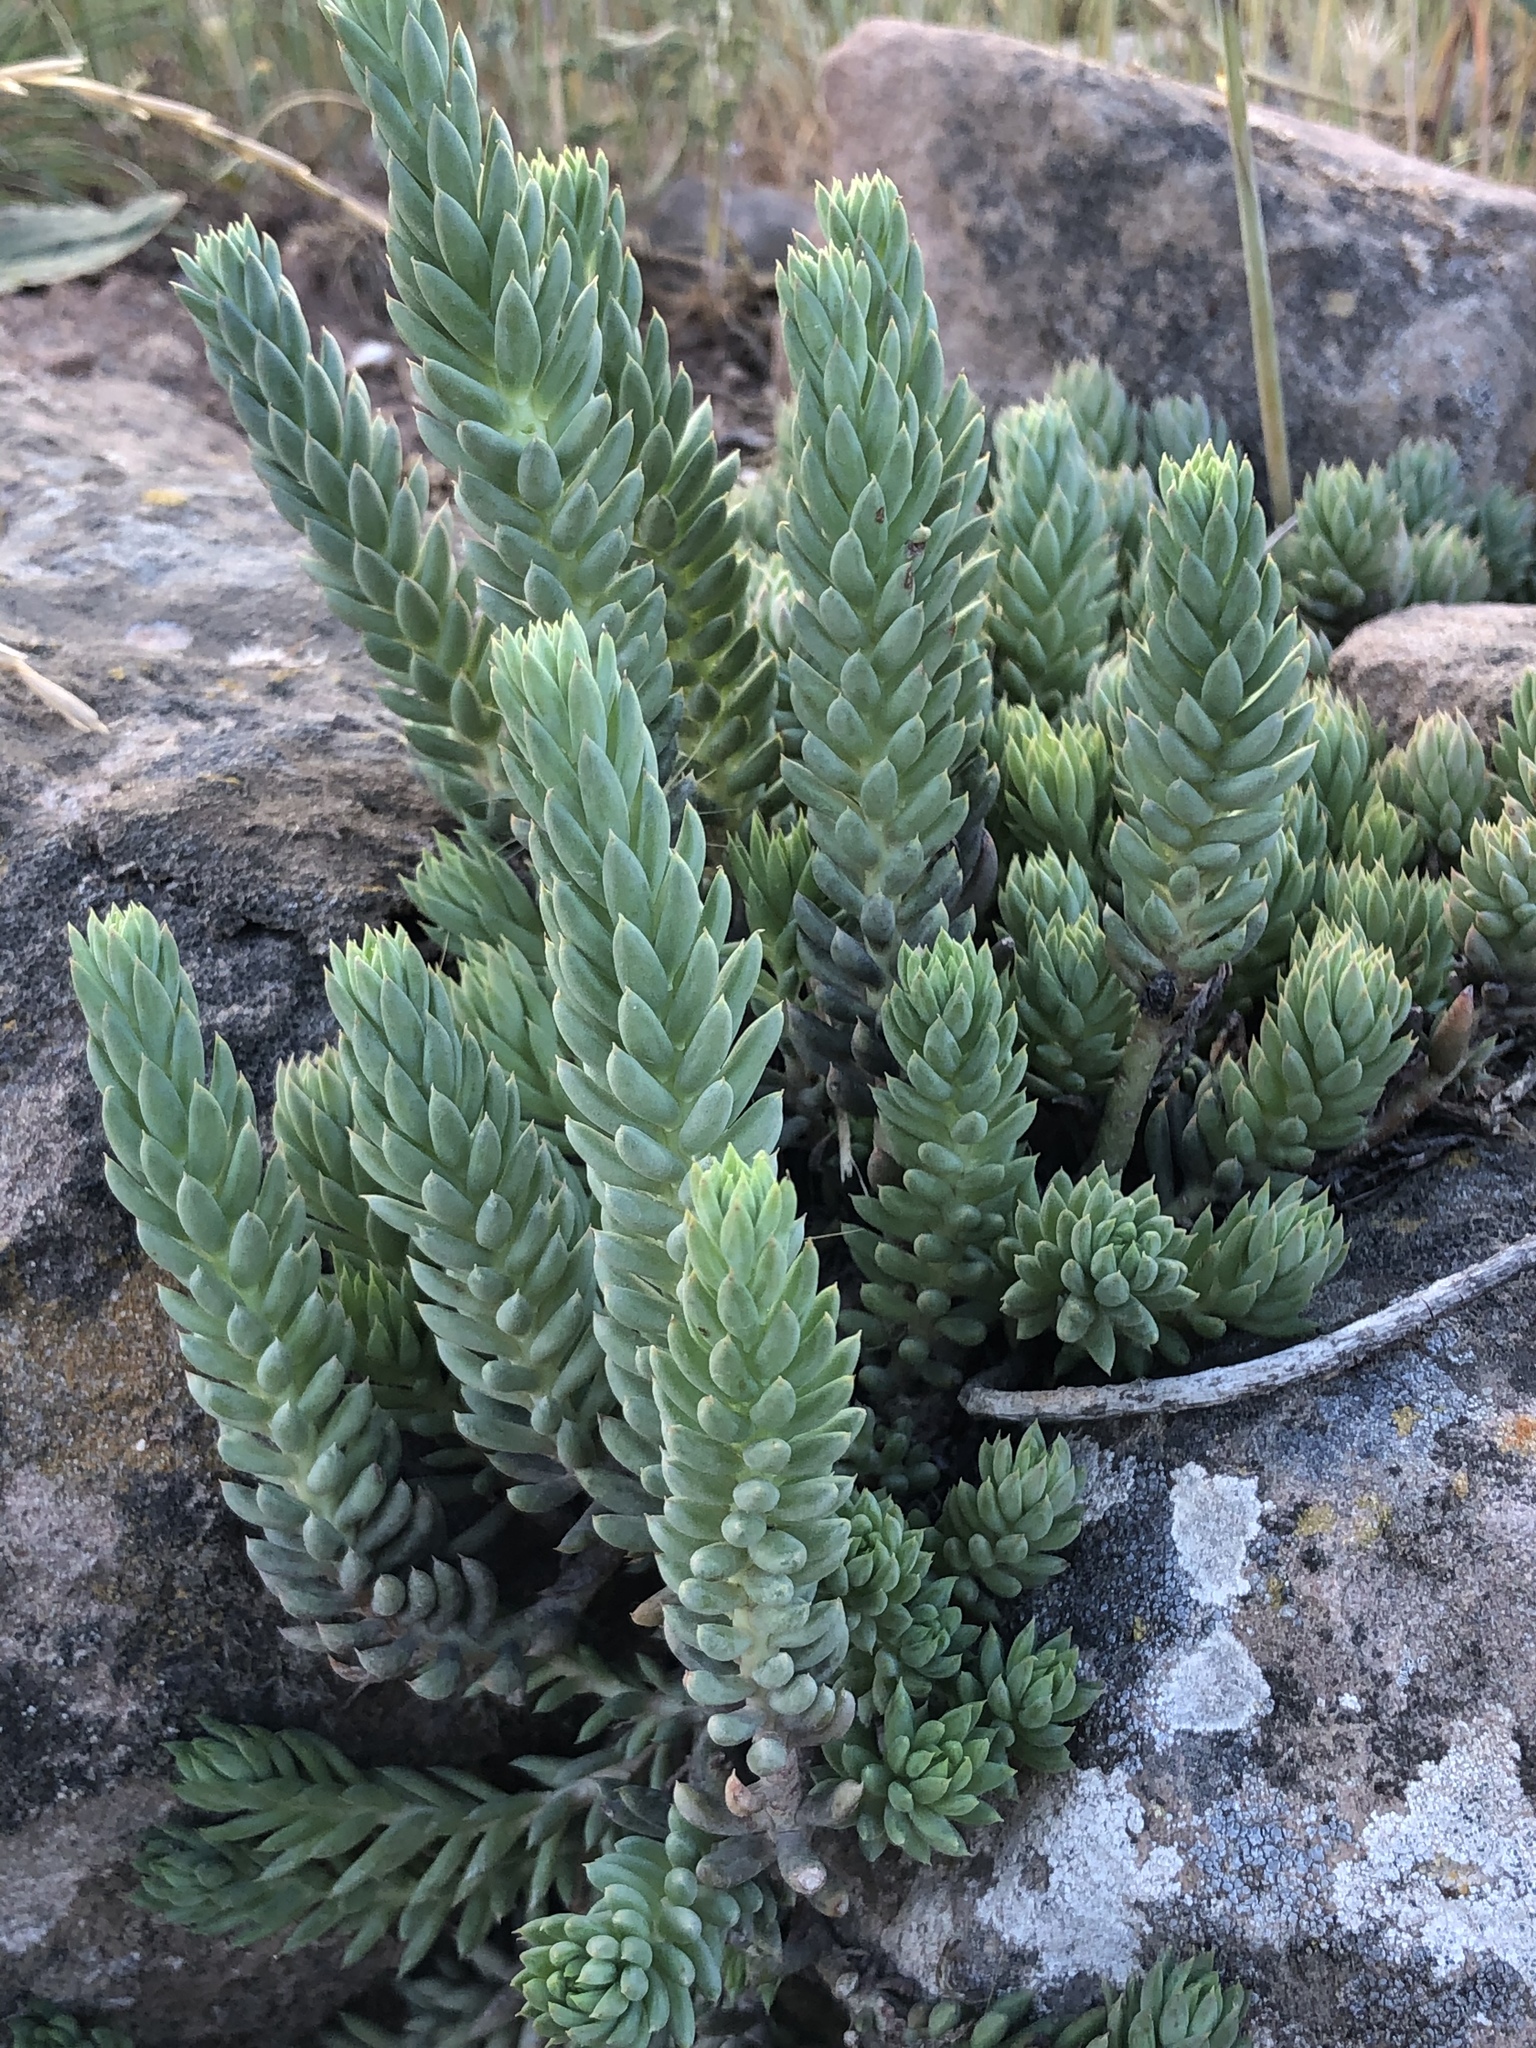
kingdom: Plantae
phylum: Tracheophyta
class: Magnoliopsida
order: Saxifragales
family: Crassulaceae
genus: Petrosedum
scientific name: Petrosedum sediforme
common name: Pale stonecrop
